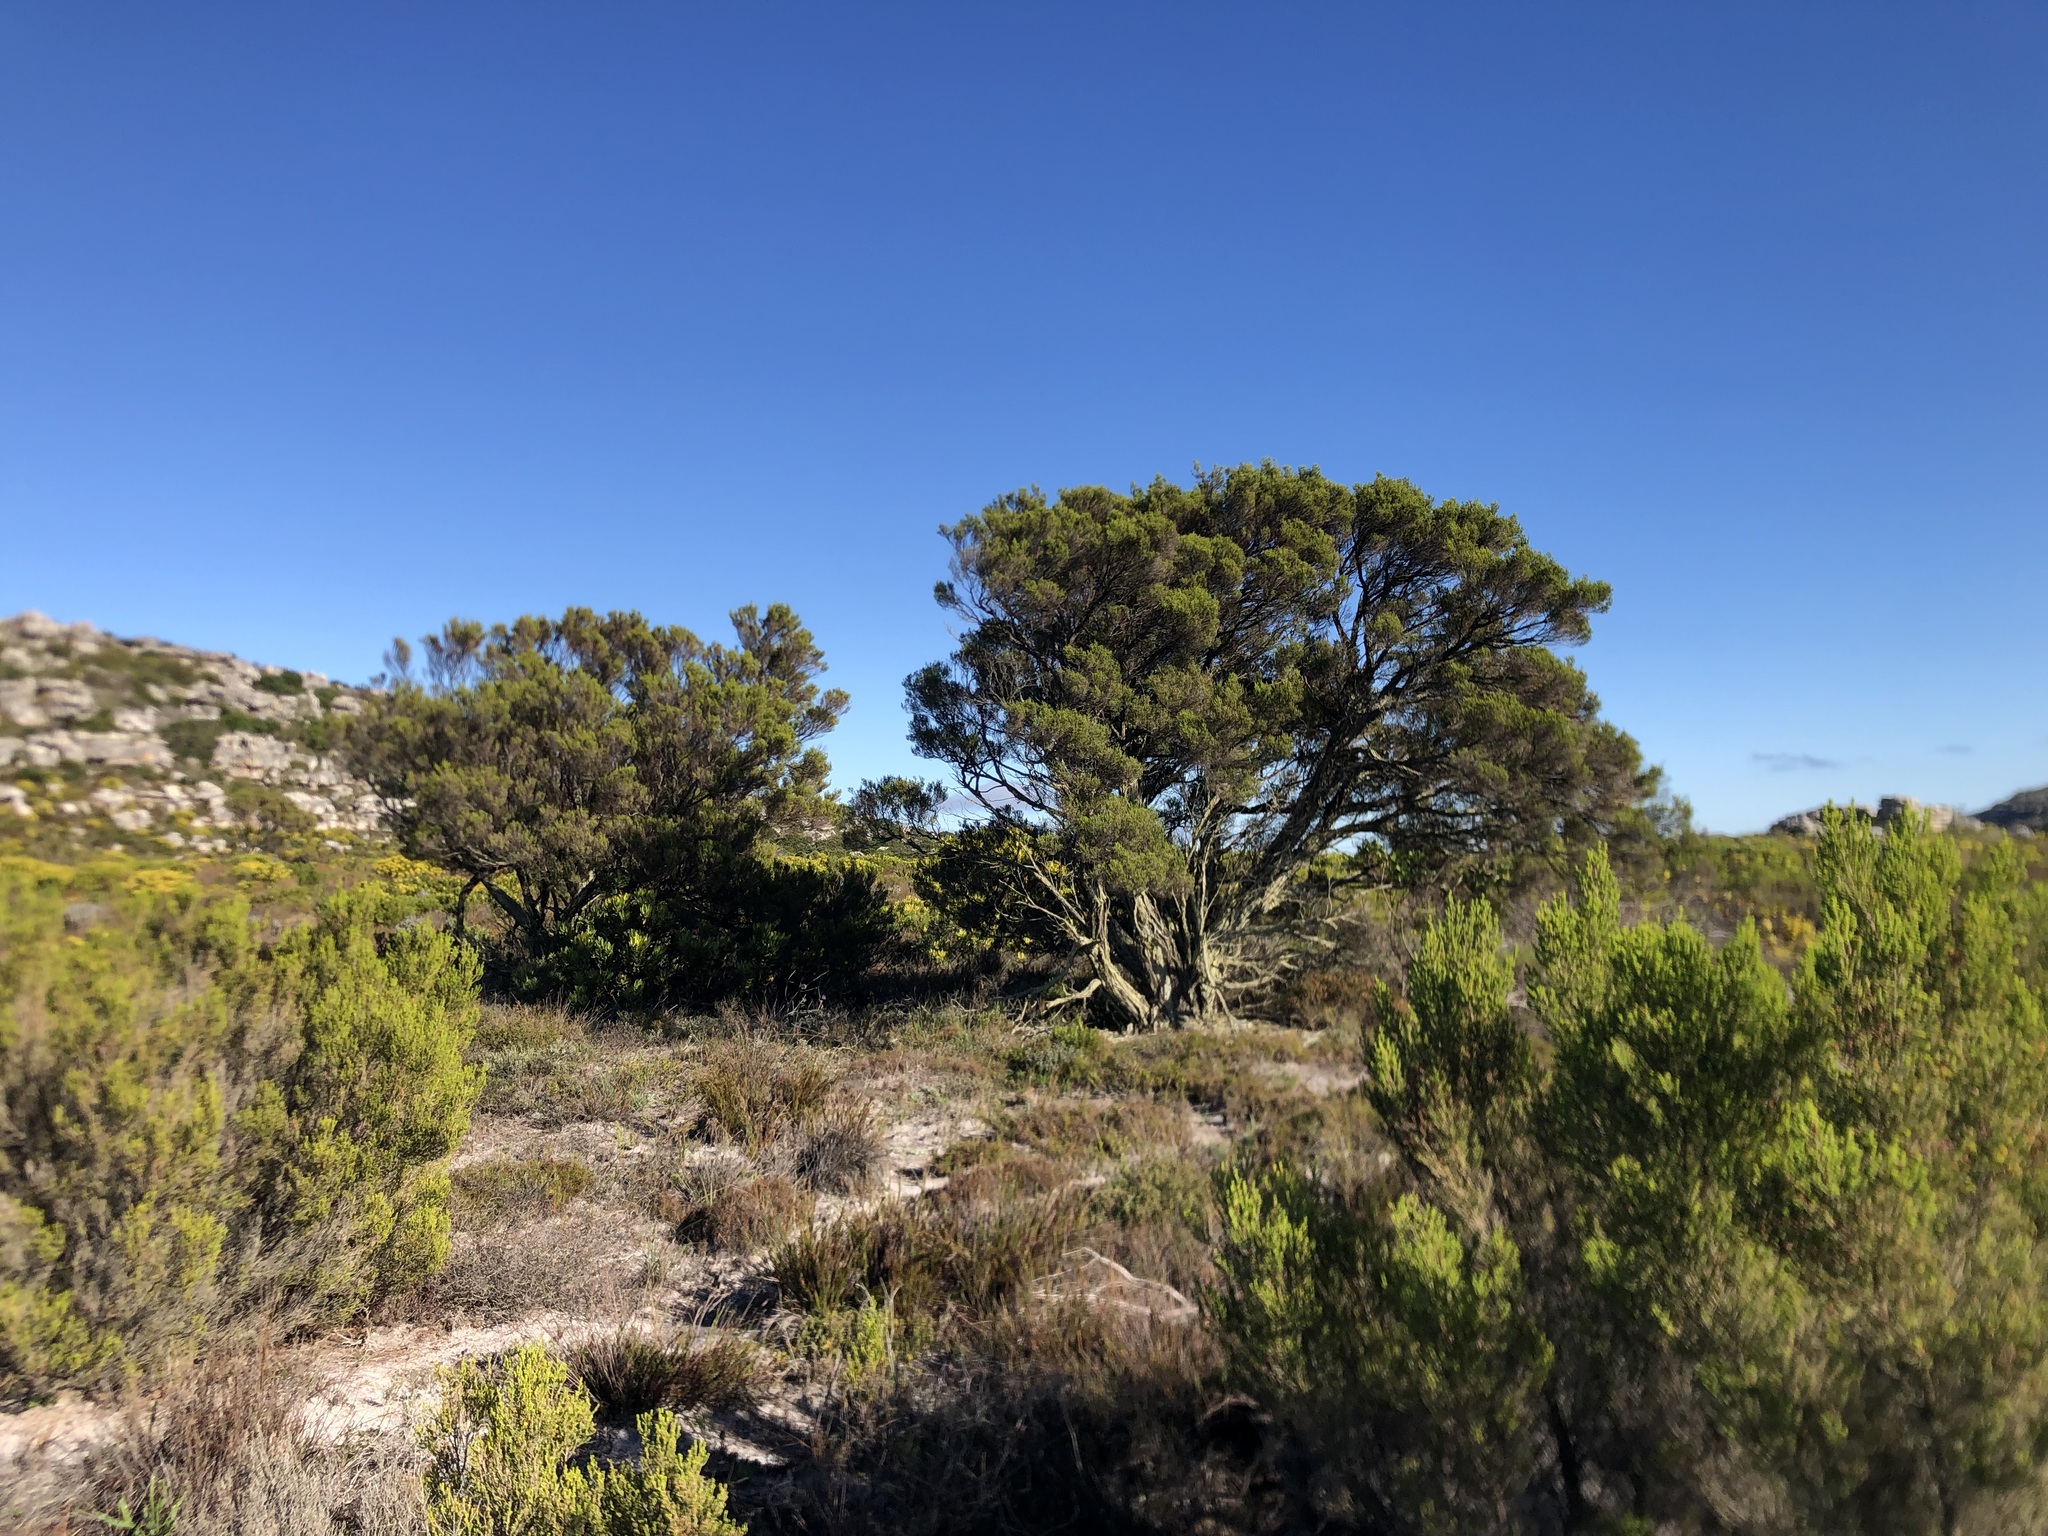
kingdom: Plantae
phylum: Tracheophyta
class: Magnoliopsida
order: Ericales
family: Ericaceae
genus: Erica
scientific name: Erica tristis
